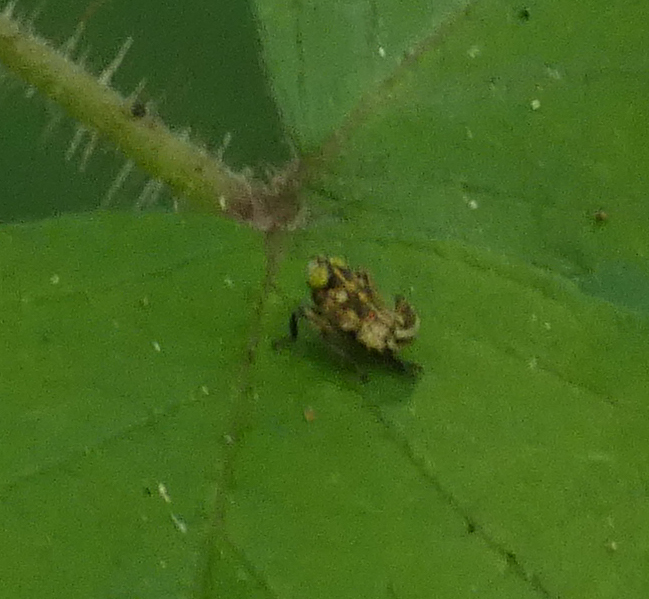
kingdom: Animalia
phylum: Arthropoda
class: Insecta
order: Hemiptera
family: Cicadellidae
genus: Jikradia
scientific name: Jikradia olitoria
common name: Coppery leafhopper
